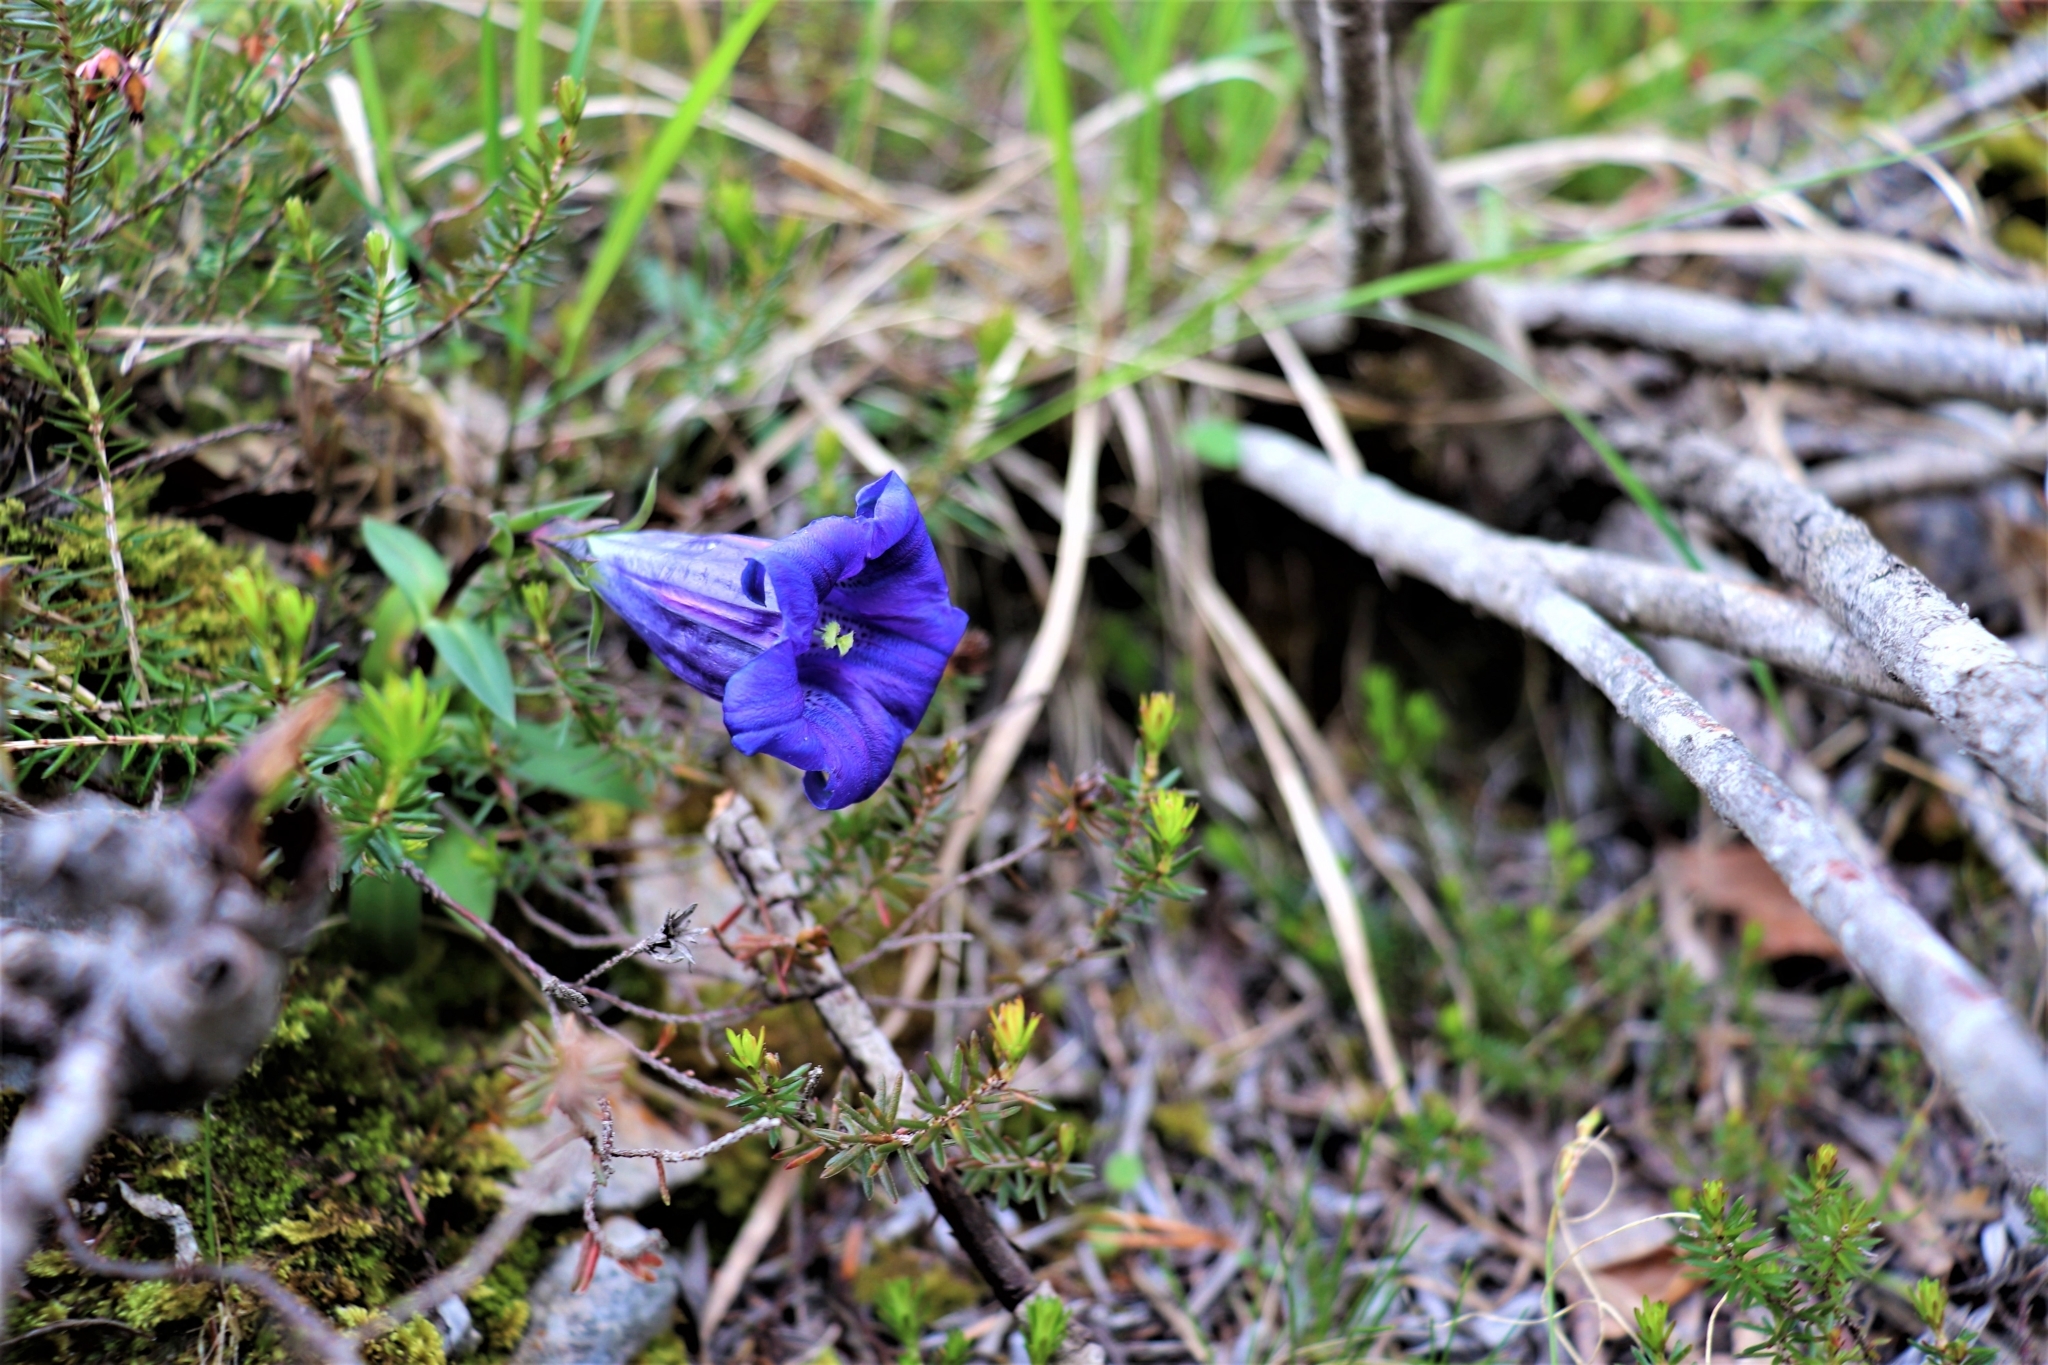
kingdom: Plantae
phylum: Tracheophyta
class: Magnoliopsida
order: Gentianales
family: Gentianaceae
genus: Gentiana
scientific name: Gentiana clusii
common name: Trumpet gentian
